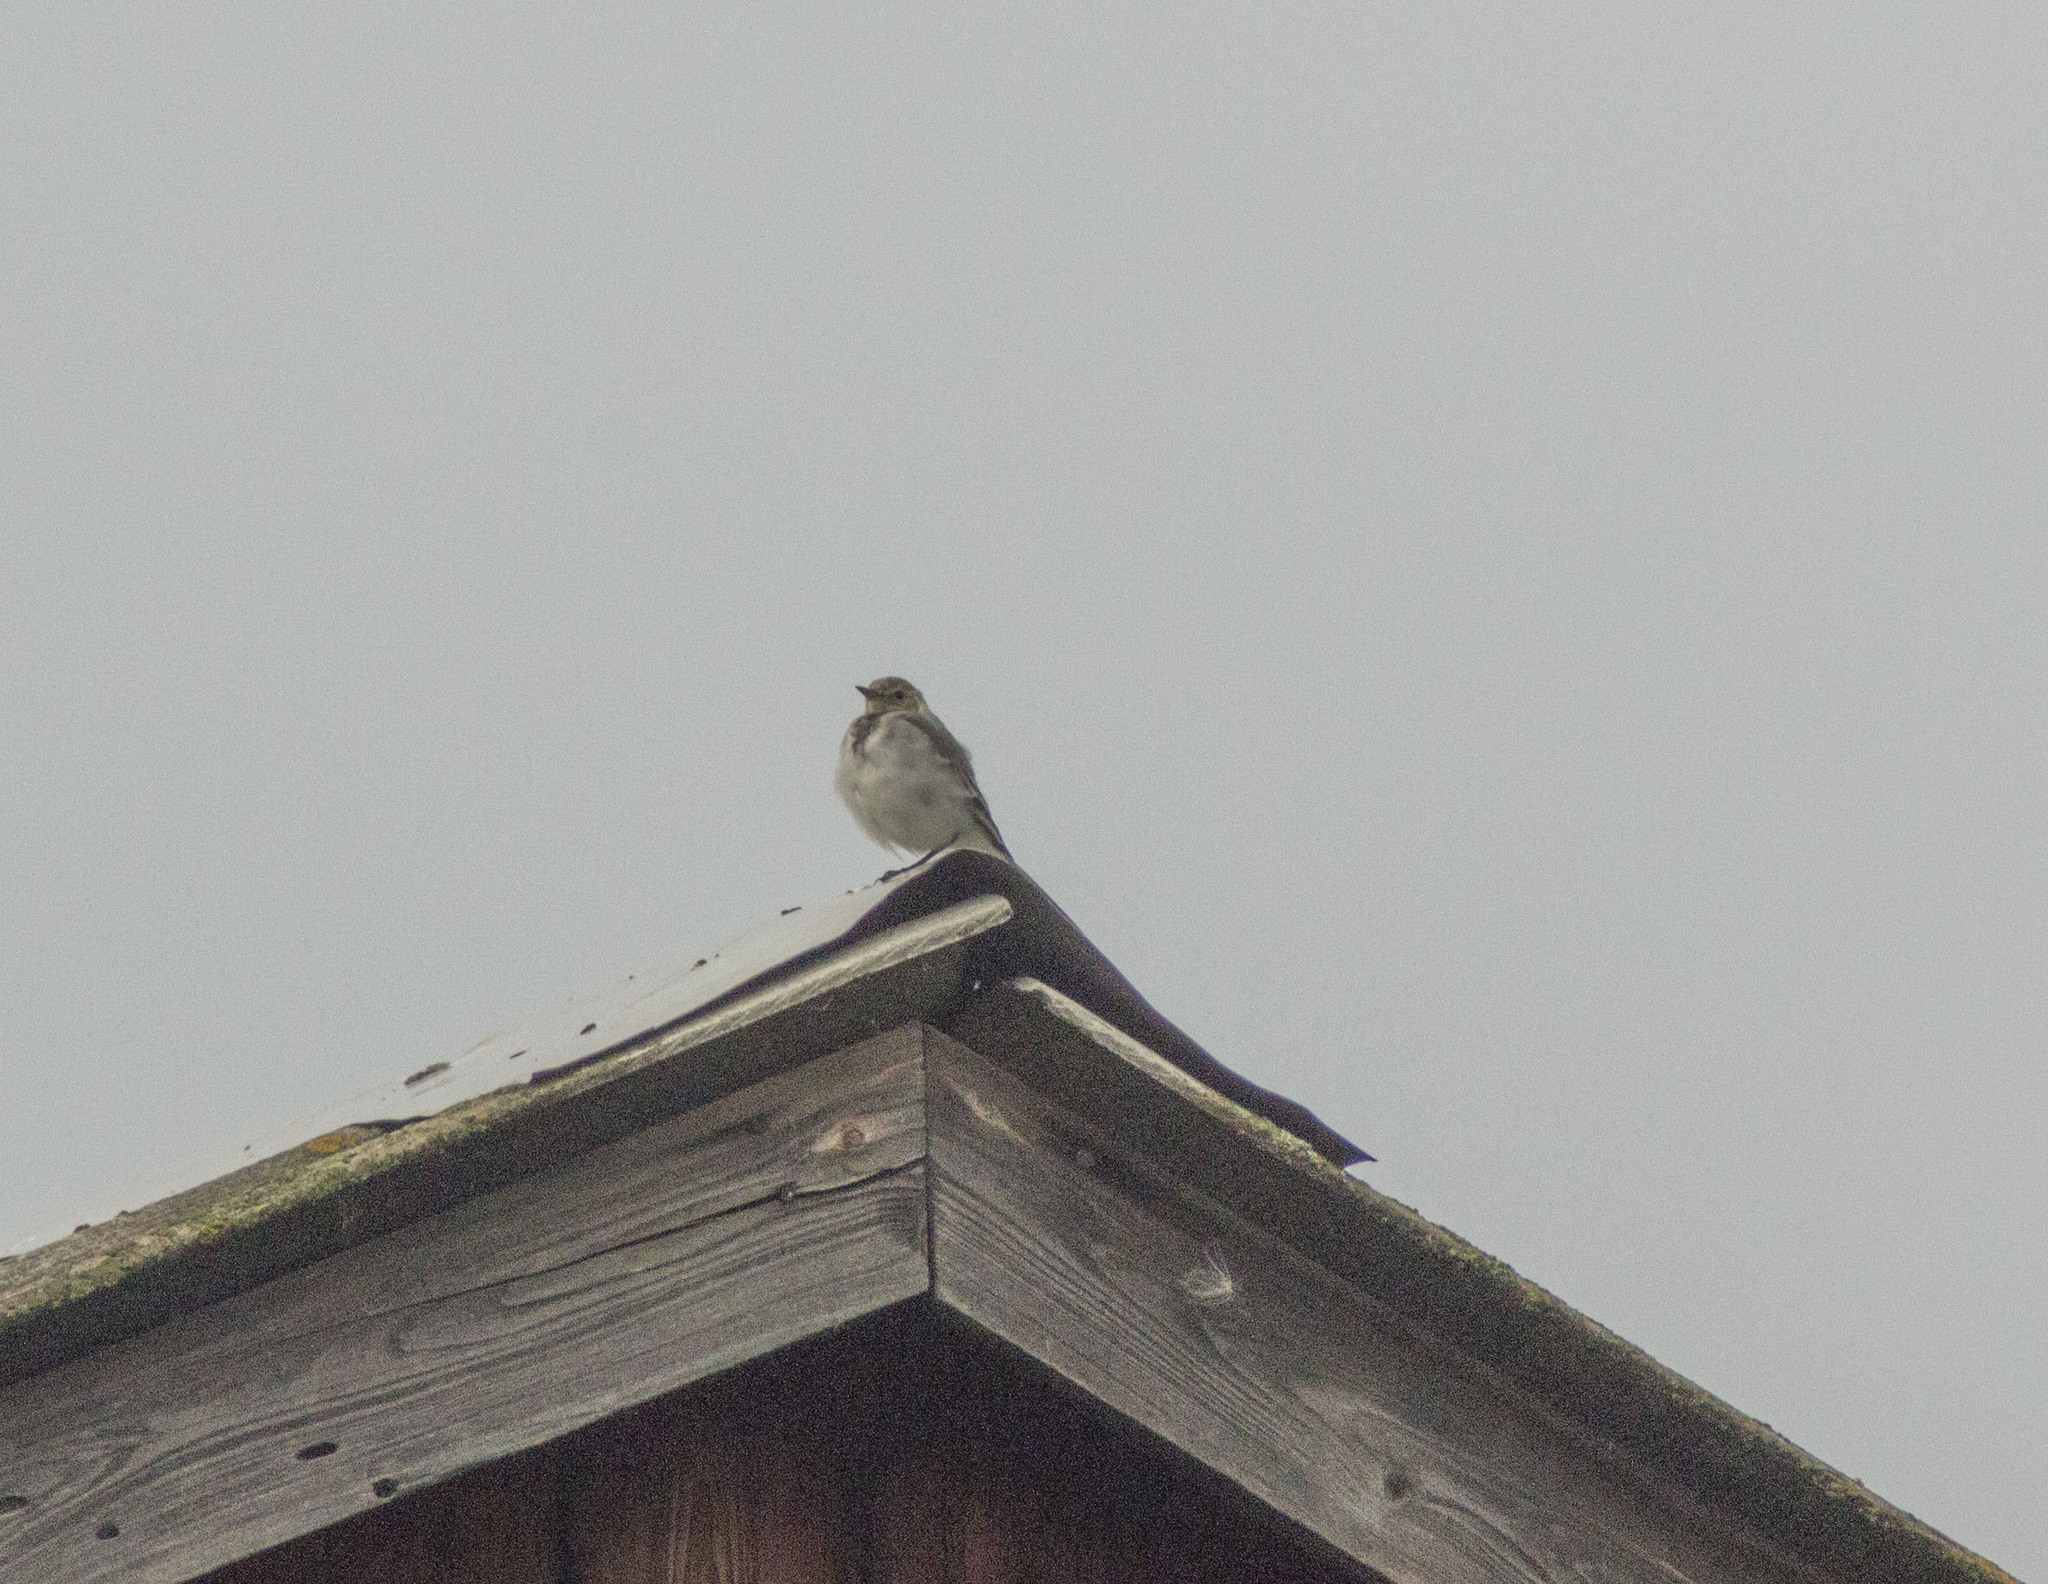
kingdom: Animalia
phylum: Chordata
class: Aves
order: Passeriformes
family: Motacillidae
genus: Motacilla
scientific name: Motacilla alba
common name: White wagtail
